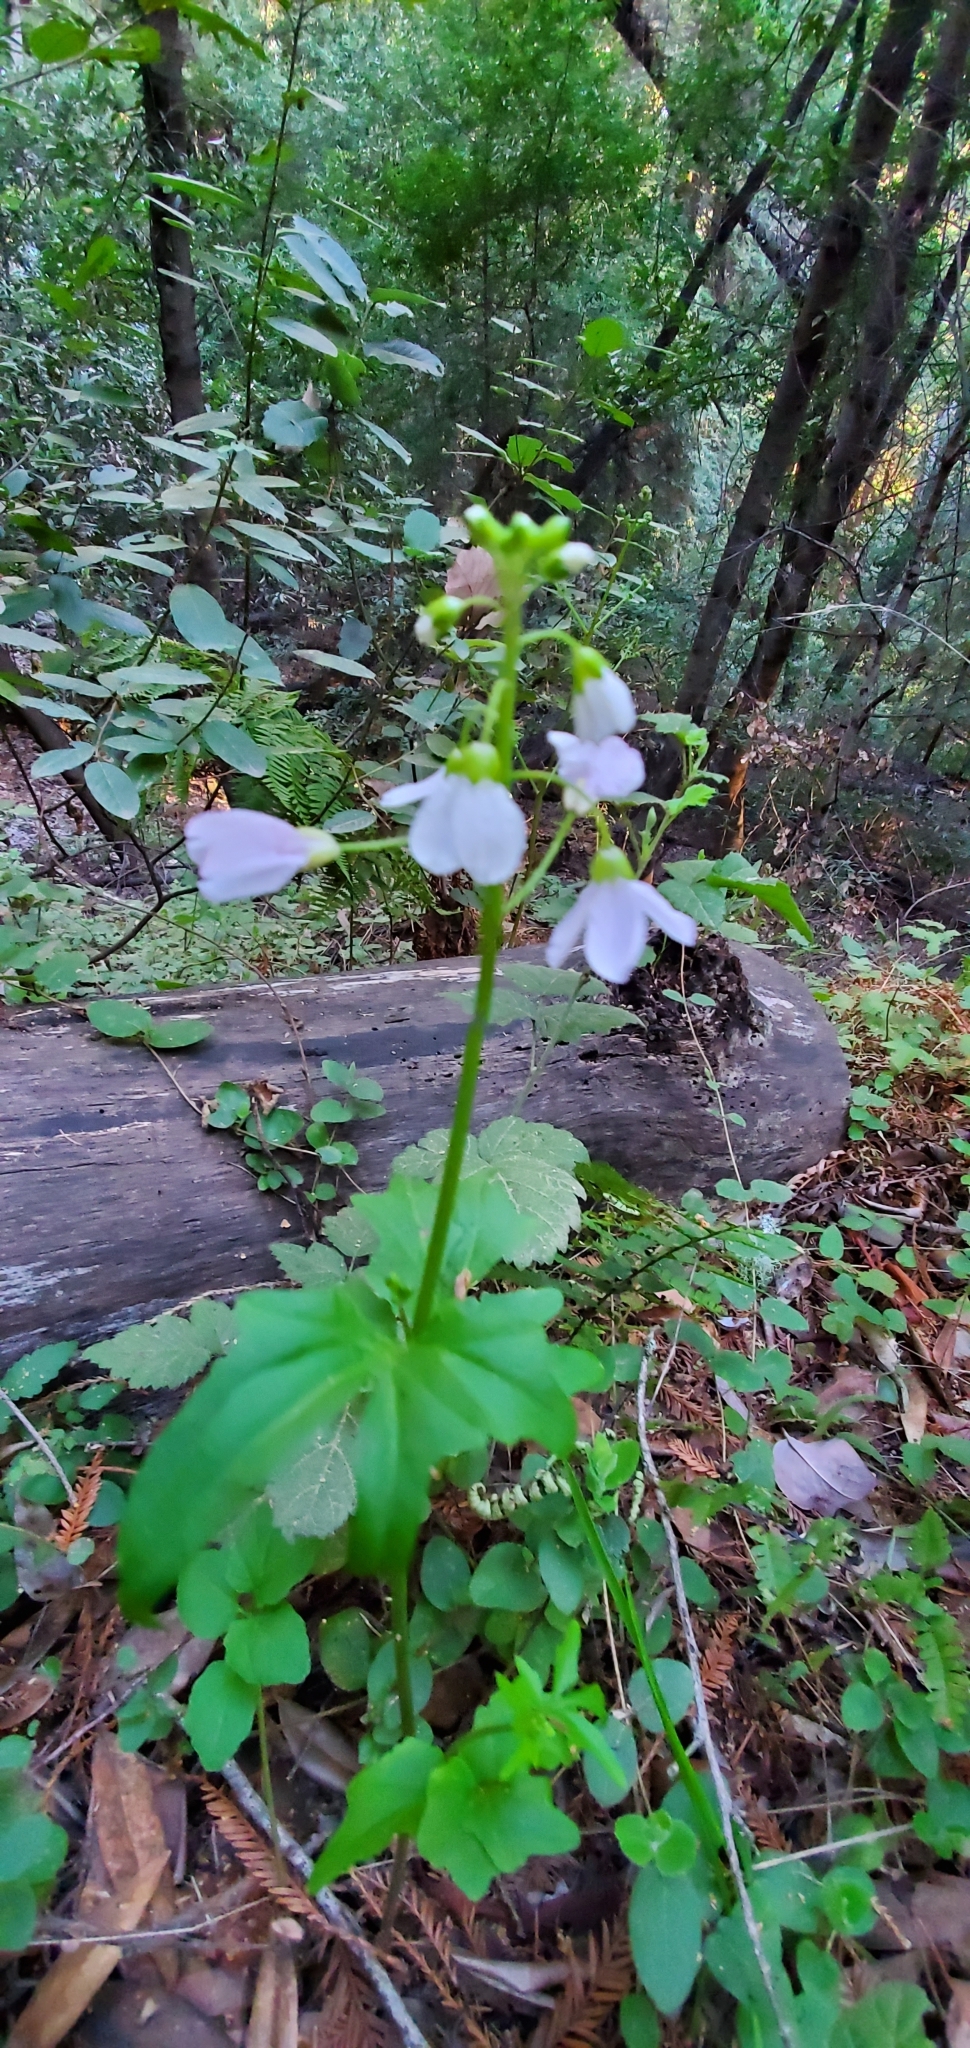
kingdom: Plantae
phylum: Tracheophyta
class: Magnoliopsida
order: Brassicales
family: Brassicaceae
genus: Cardamine
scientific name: Cardamine californica
